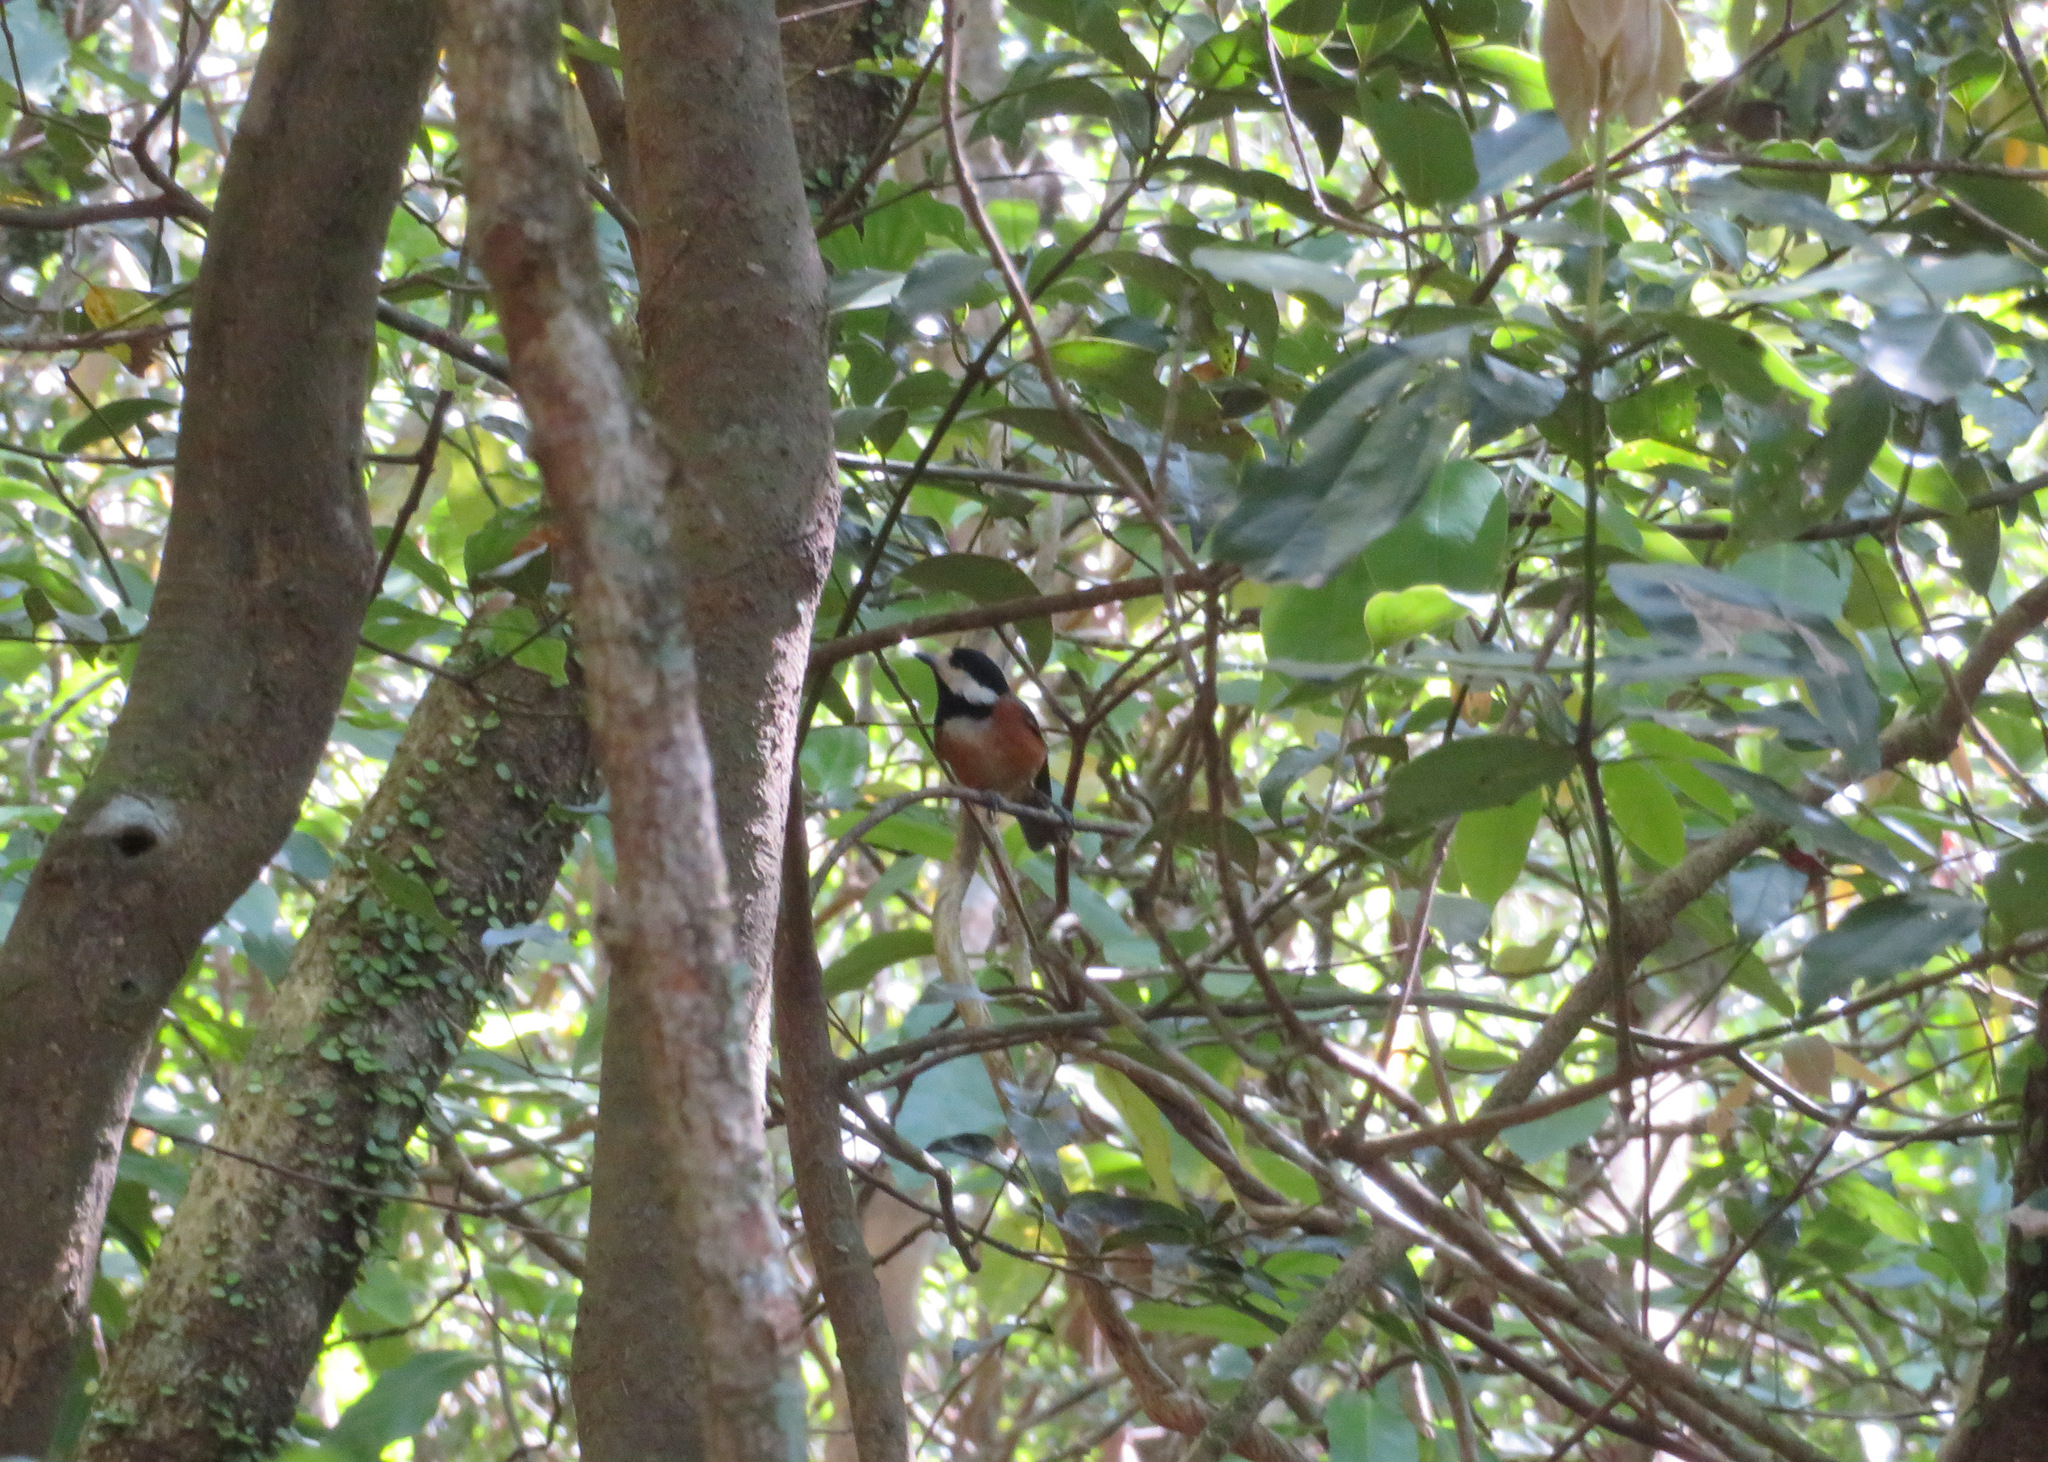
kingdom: Animalia
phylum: Chordata
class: Aves
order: Passeriformes
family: Paridae
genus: Poecile
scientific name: Poecile varius
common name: Varied tit
